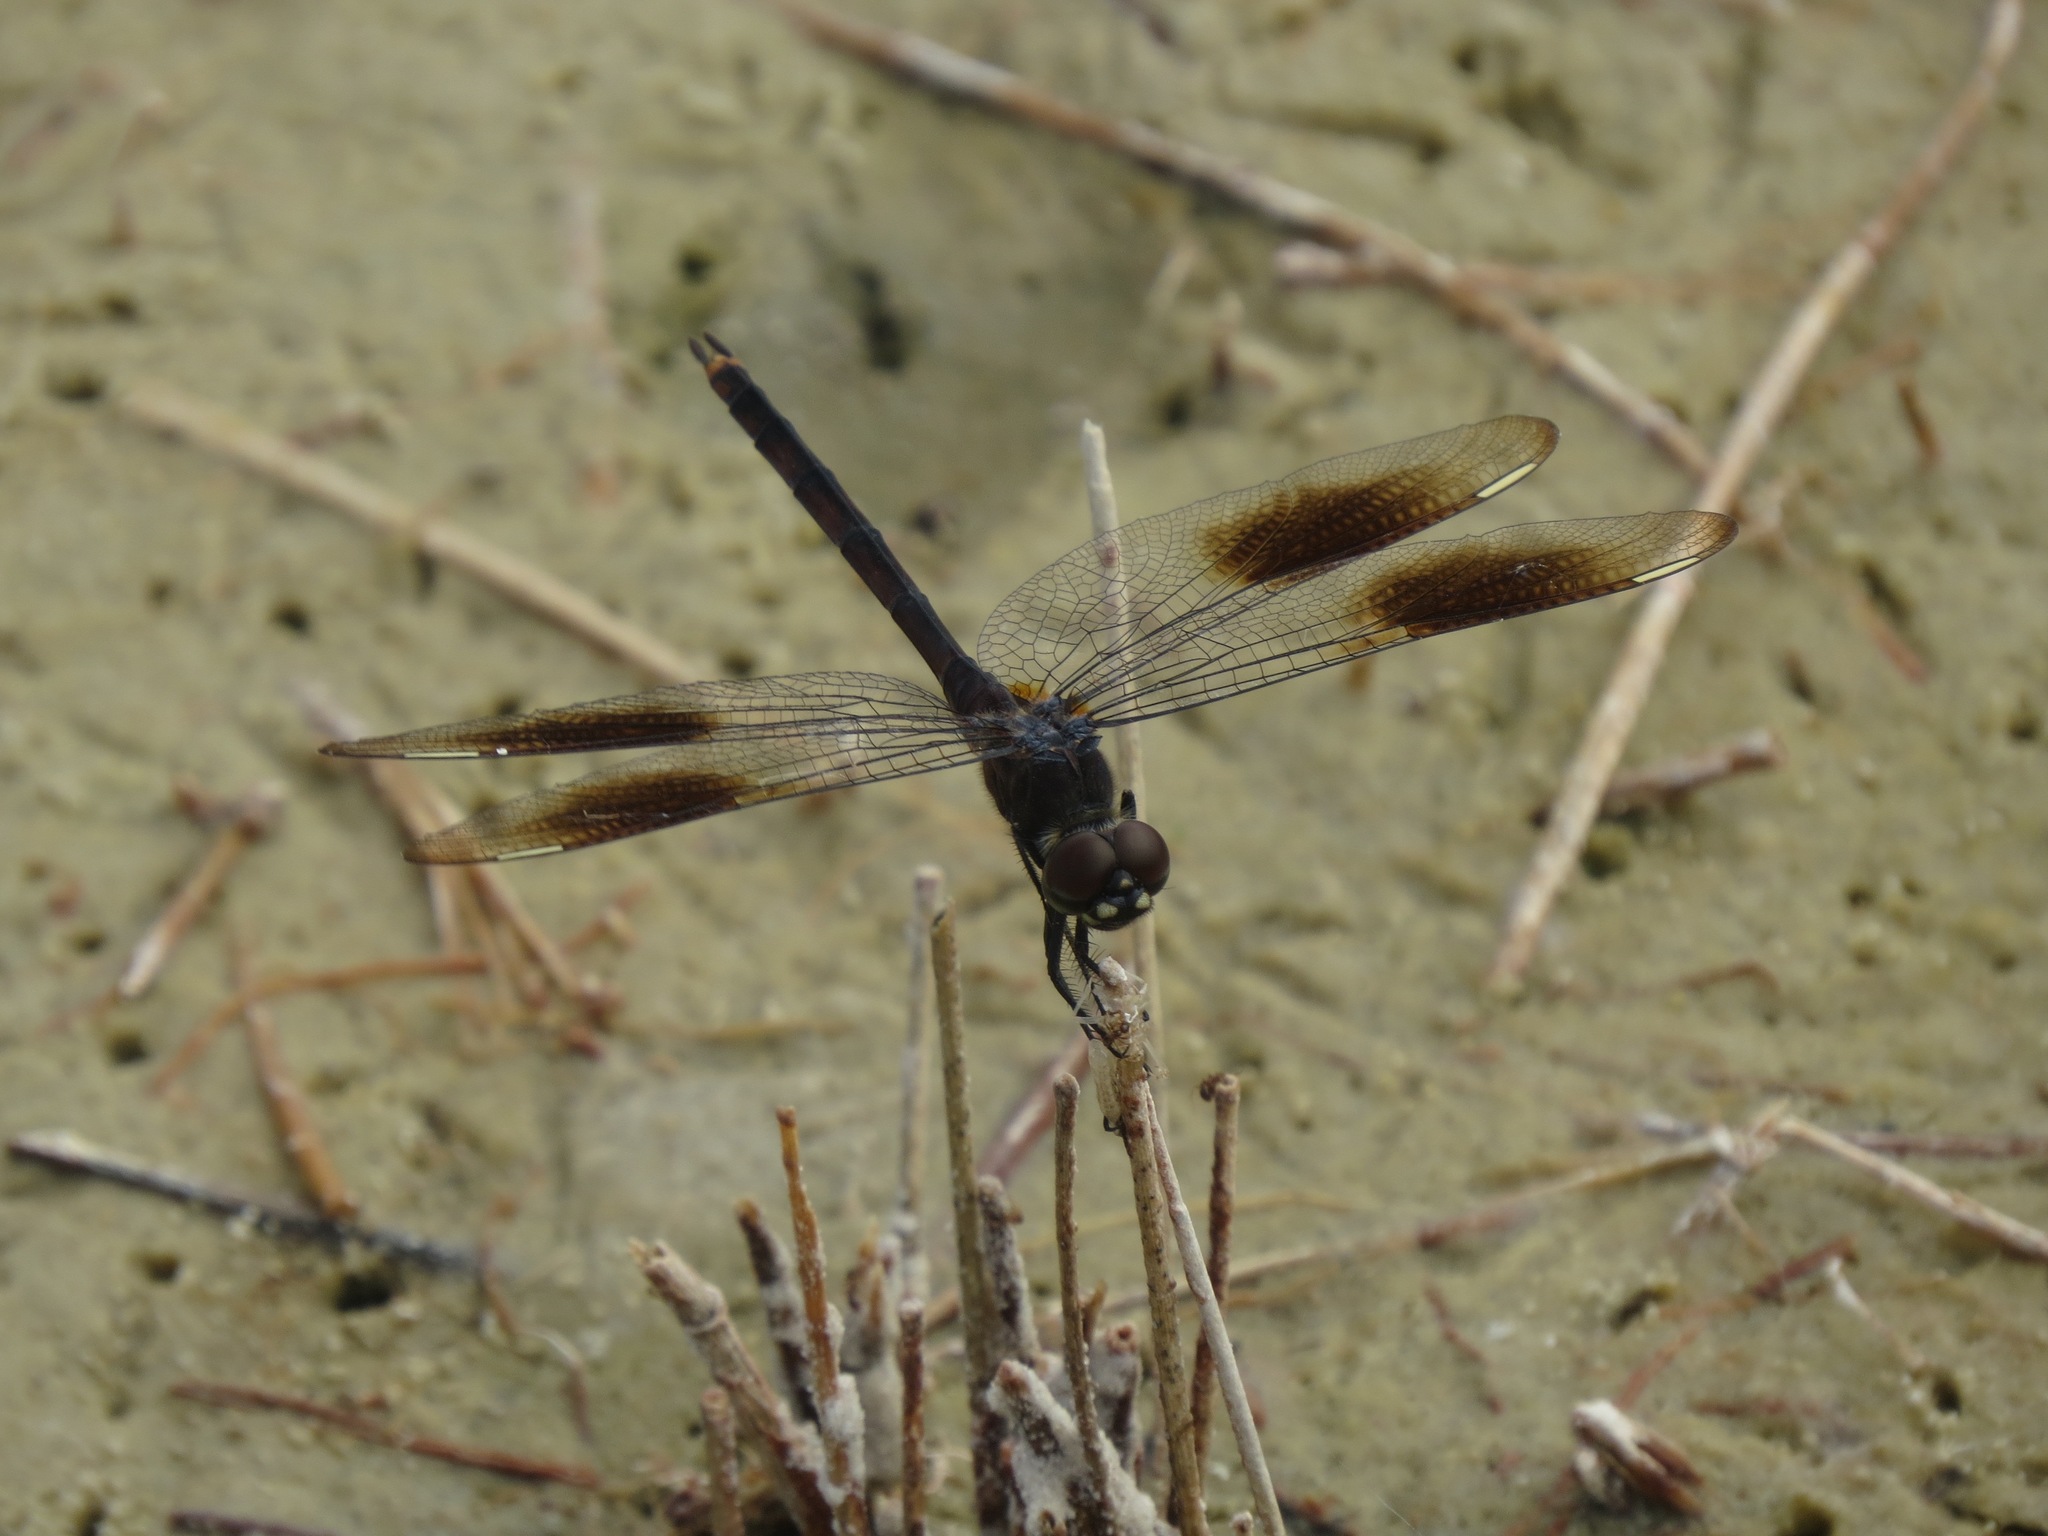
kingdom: Animalia
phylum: Arthropoda
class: Insecta
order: Odonata
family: Libellulidae
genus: Brachymesia
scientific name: Brachymesia gravida
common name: Four-spotted pennant
